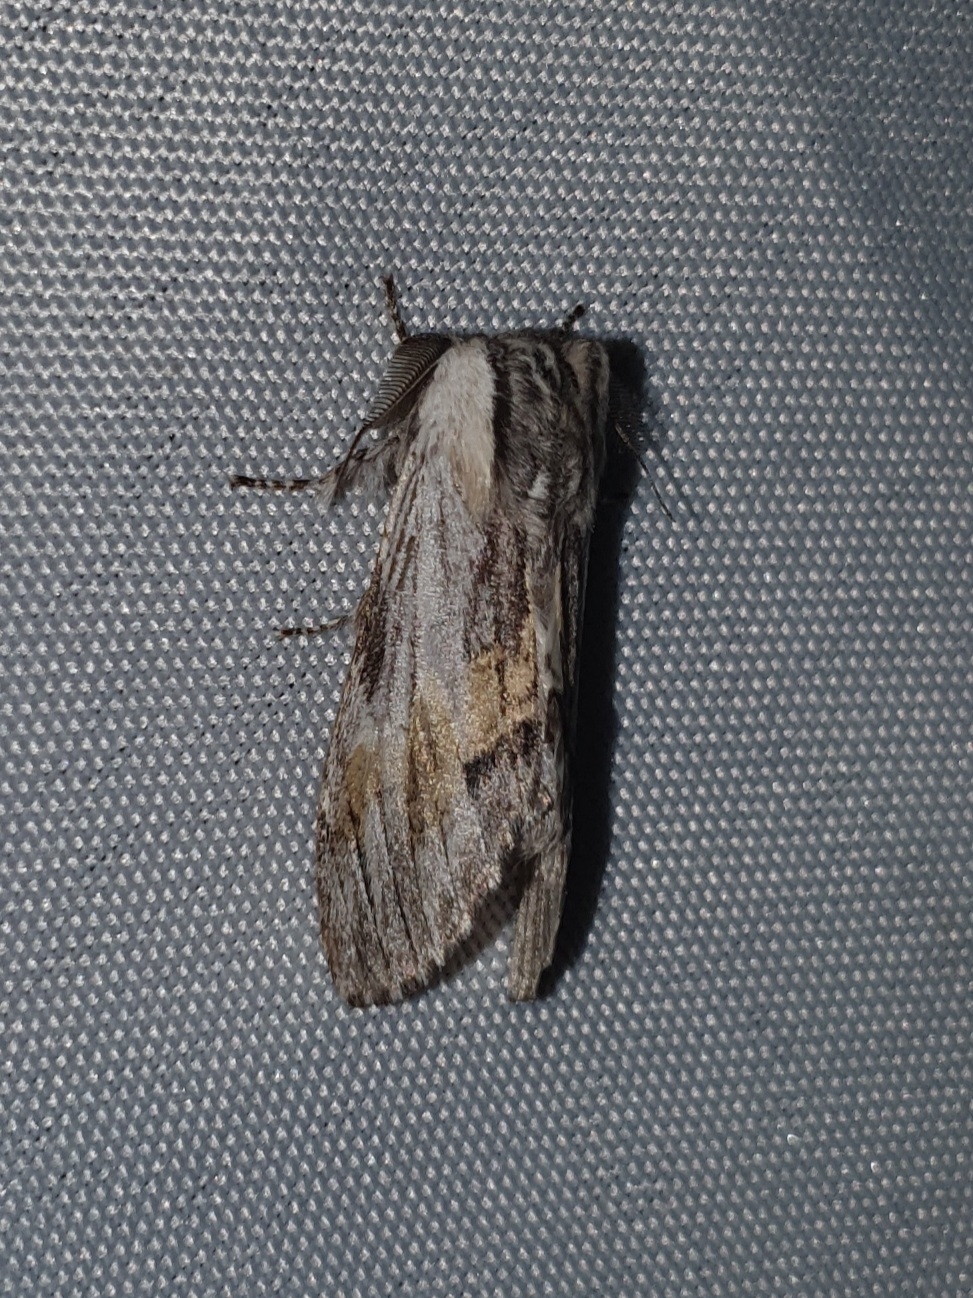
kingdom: Animalia
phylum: Arthropoda
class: Insecta
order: Lepidoptera
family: Notodontidae
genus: Harpyia
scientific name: Harpyia milhauseri
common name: Tawny prominent
